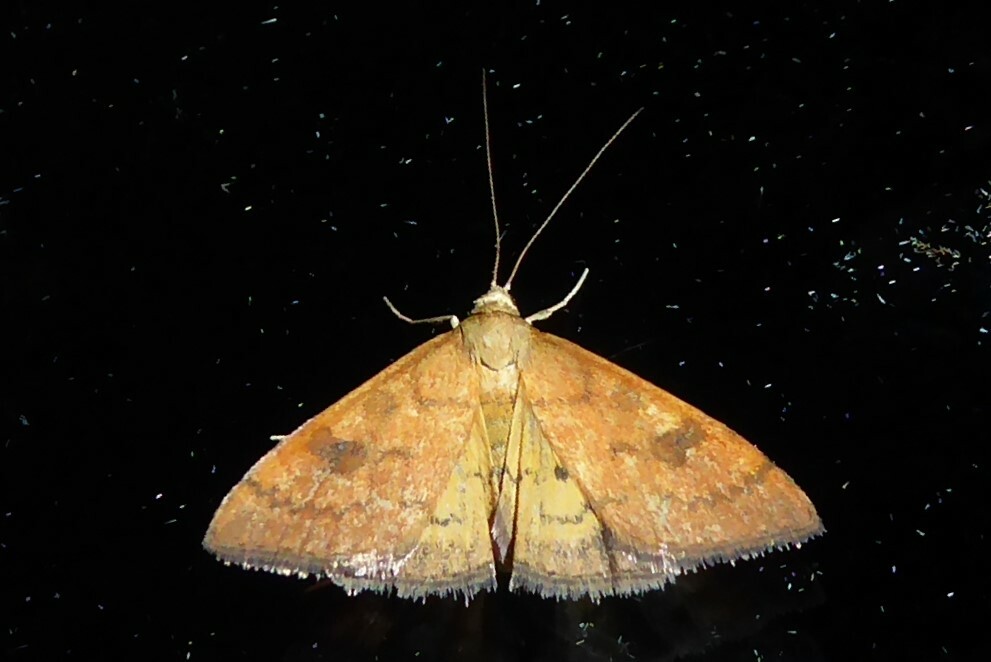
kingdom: Animalia
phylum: Arthropoda
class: Insecta
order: Lepidoptera
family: Crambidae
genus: Udea
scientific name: Udea Mnesictena flavidalis
